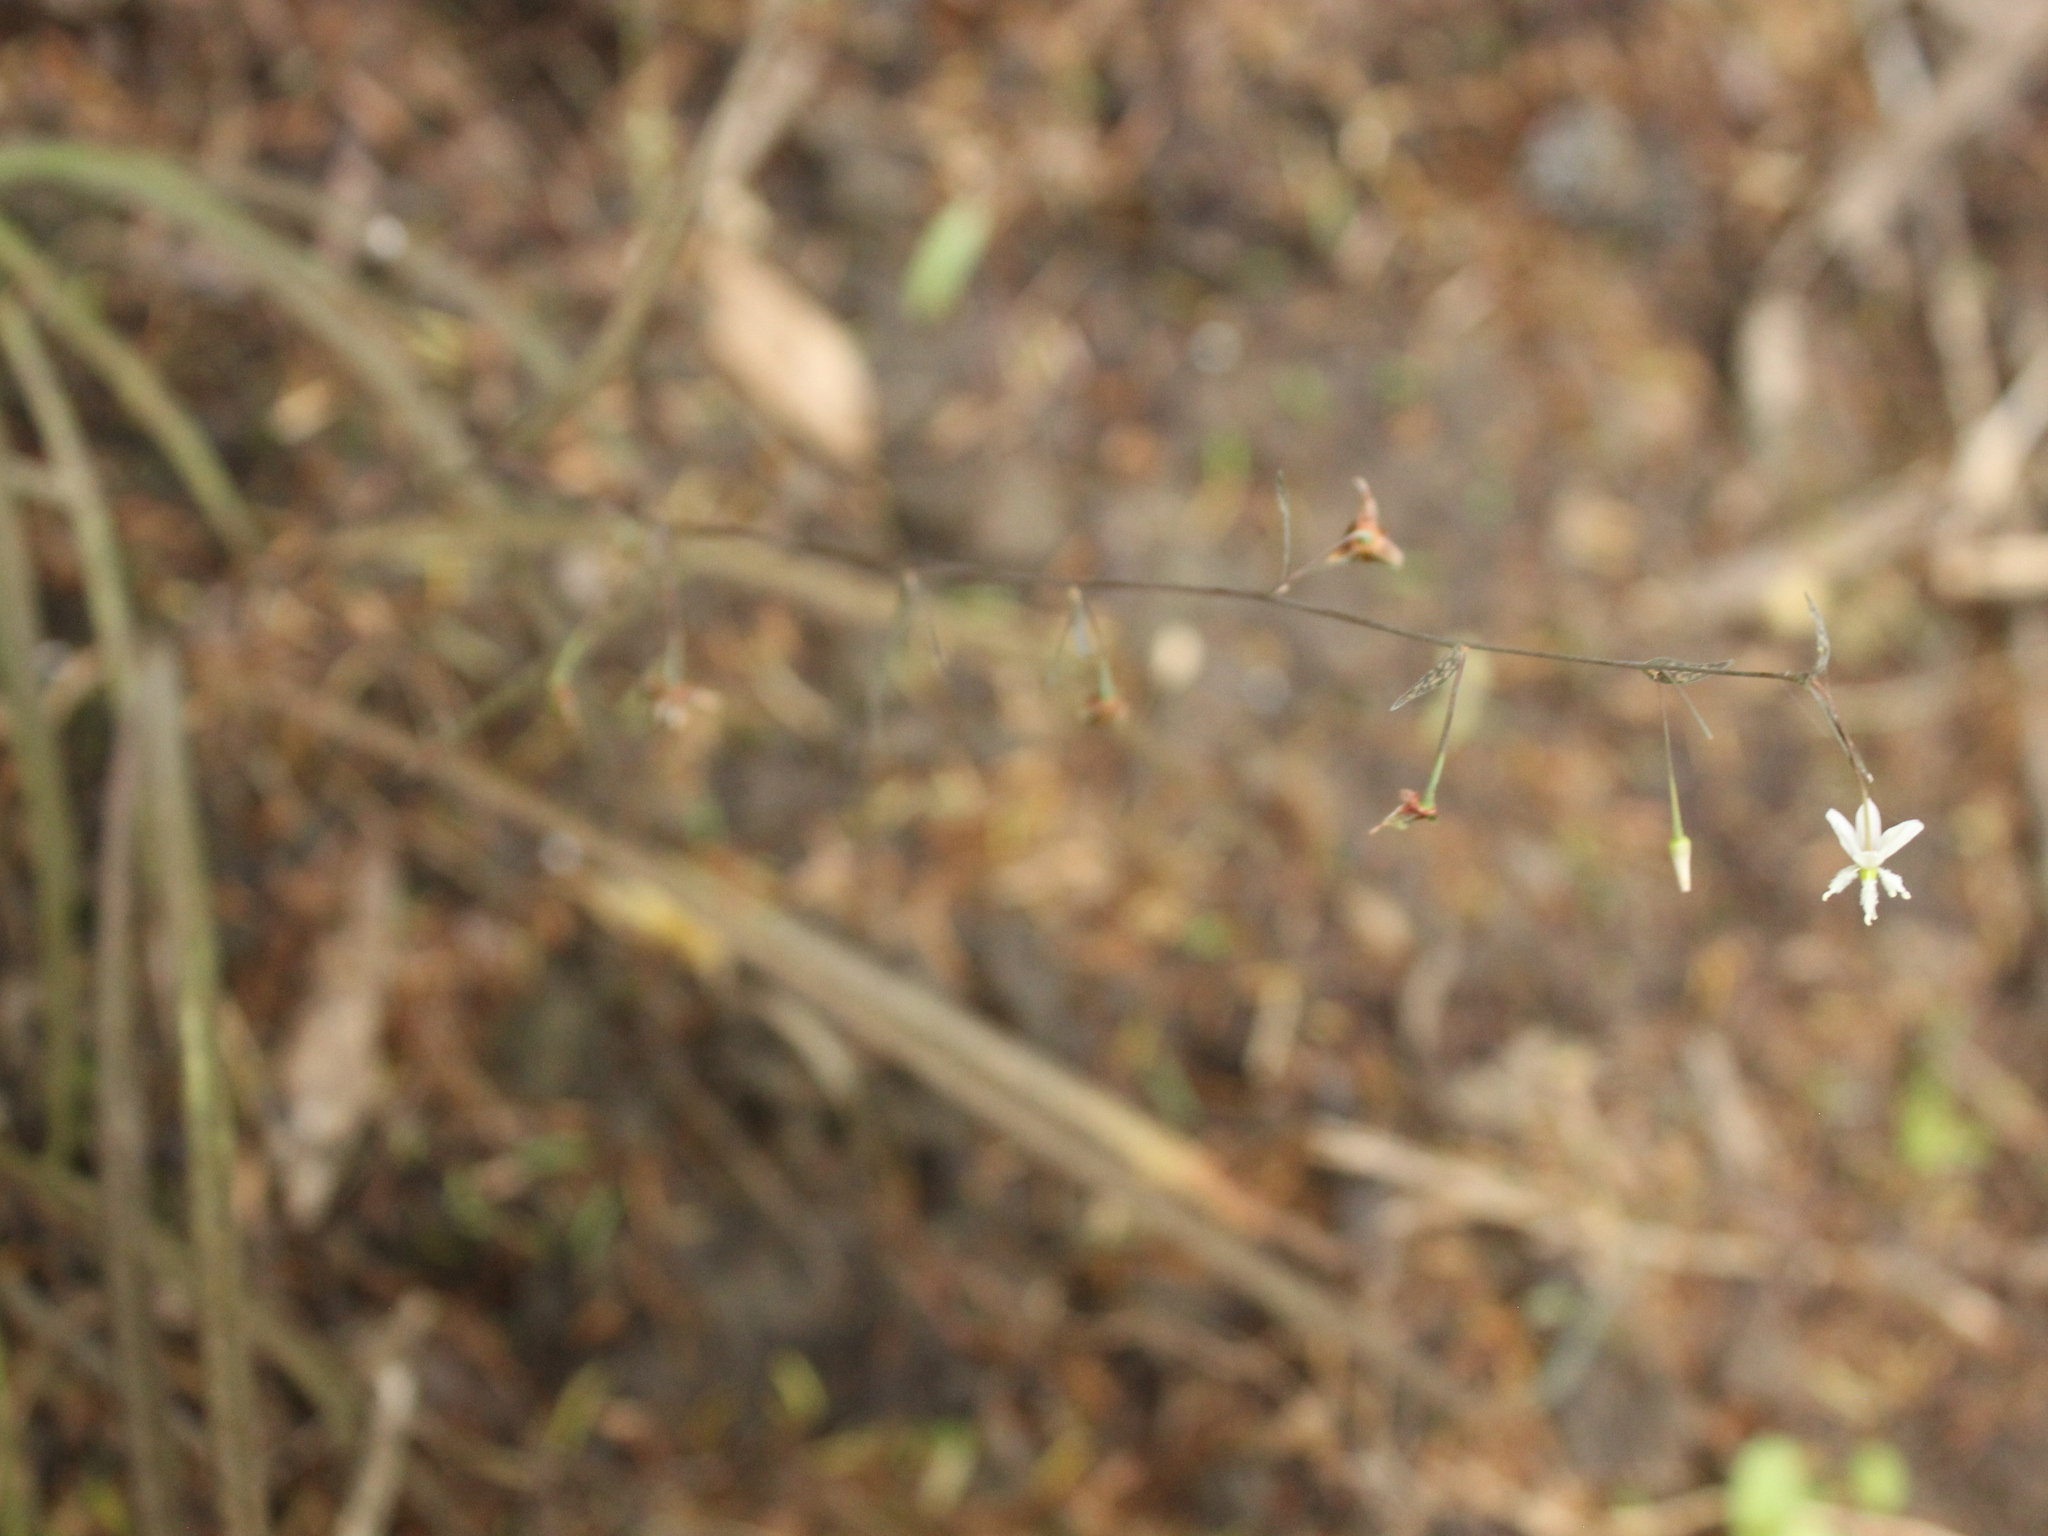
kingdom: Plantae
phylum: Tracheophyta
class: Liliopsida
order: Asparagales
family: Asparagaceae
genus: Arthropodium
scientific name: Arthropodium candidum
